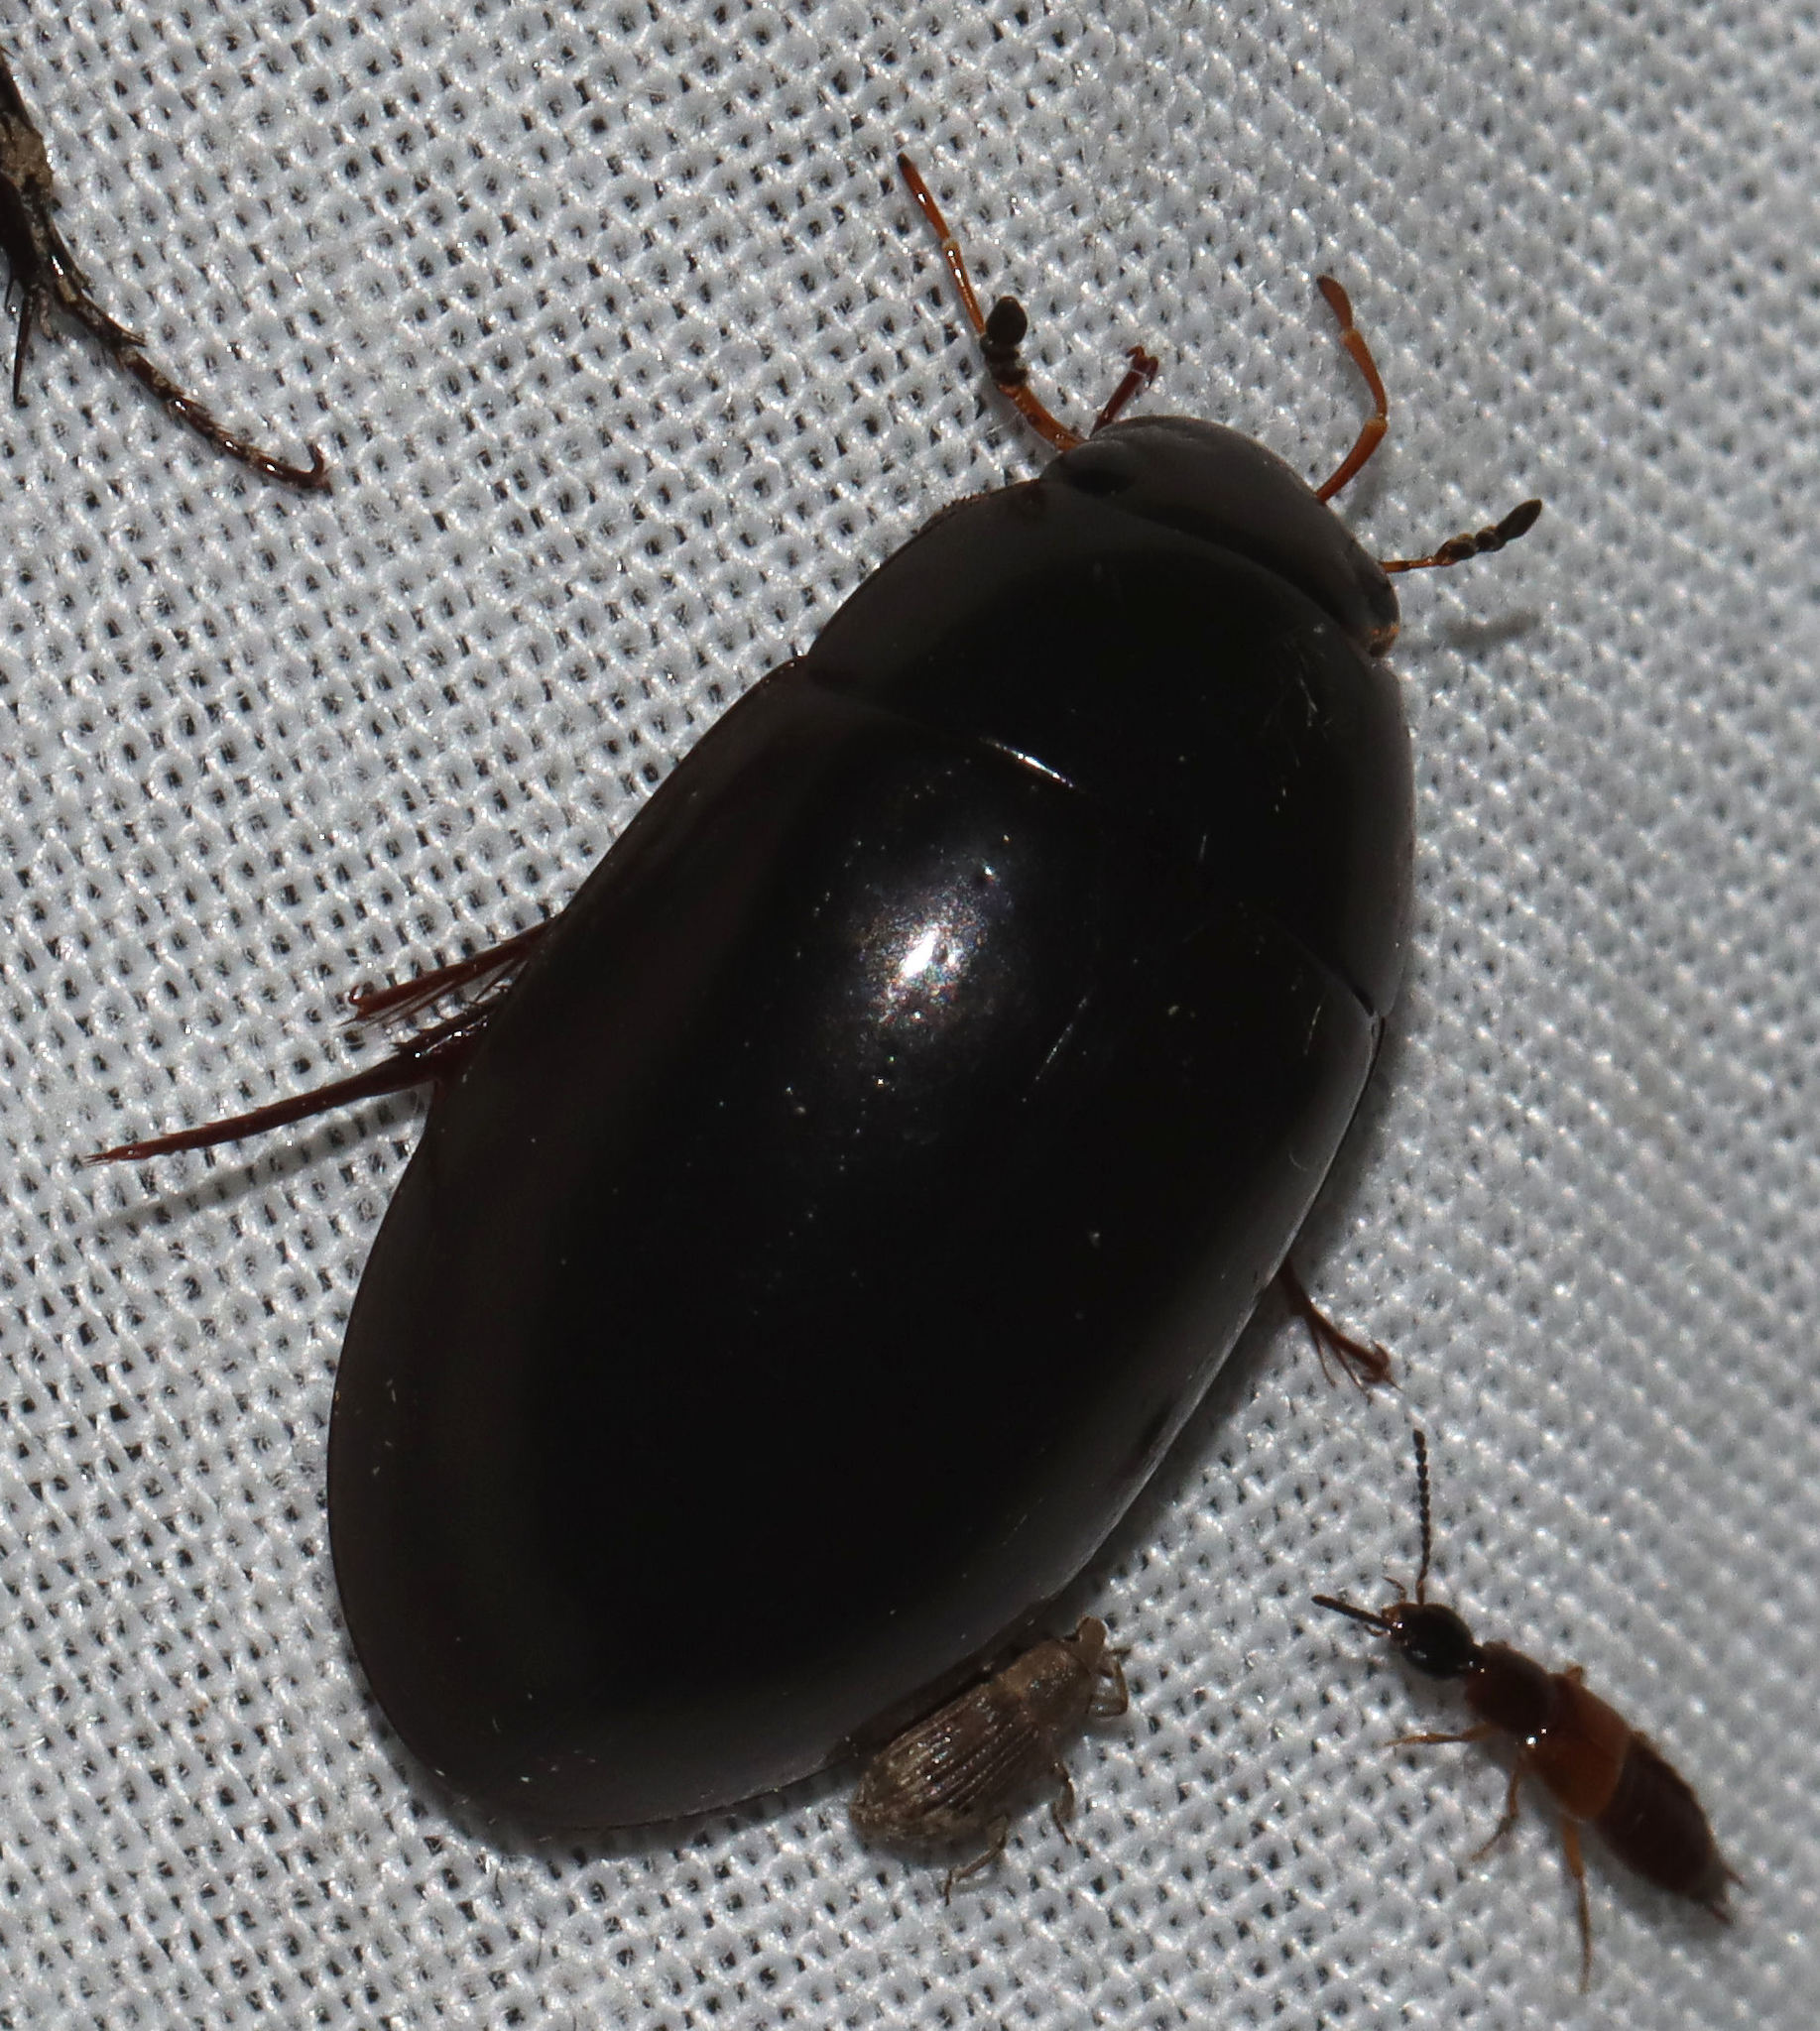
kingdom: Animalia
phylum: Arthropoda
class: Insecta
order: Coleoptera
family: Hydrophilidae
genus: Hydrochara
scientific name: Hydrochara soror
